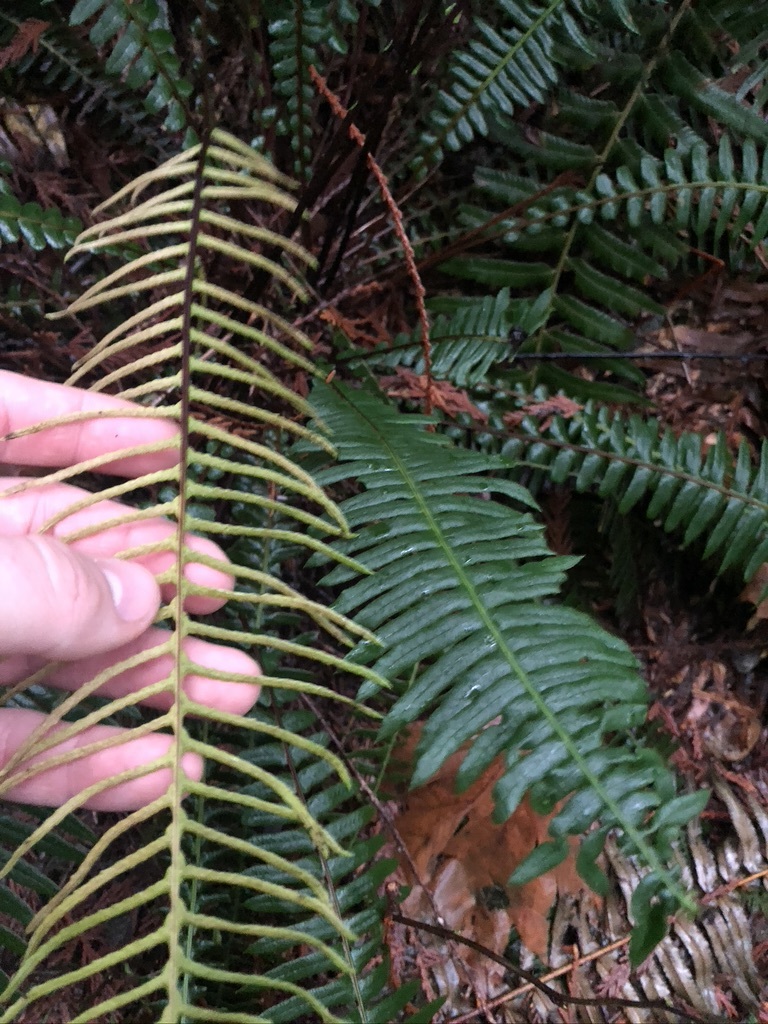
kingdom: Plantae
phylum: Tracheophyta
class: Polypodiopsida
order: Polypodiales
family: Blechnaceae
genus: Struthiopteris
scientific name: Struthiopteris spicant
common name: Deer fern
